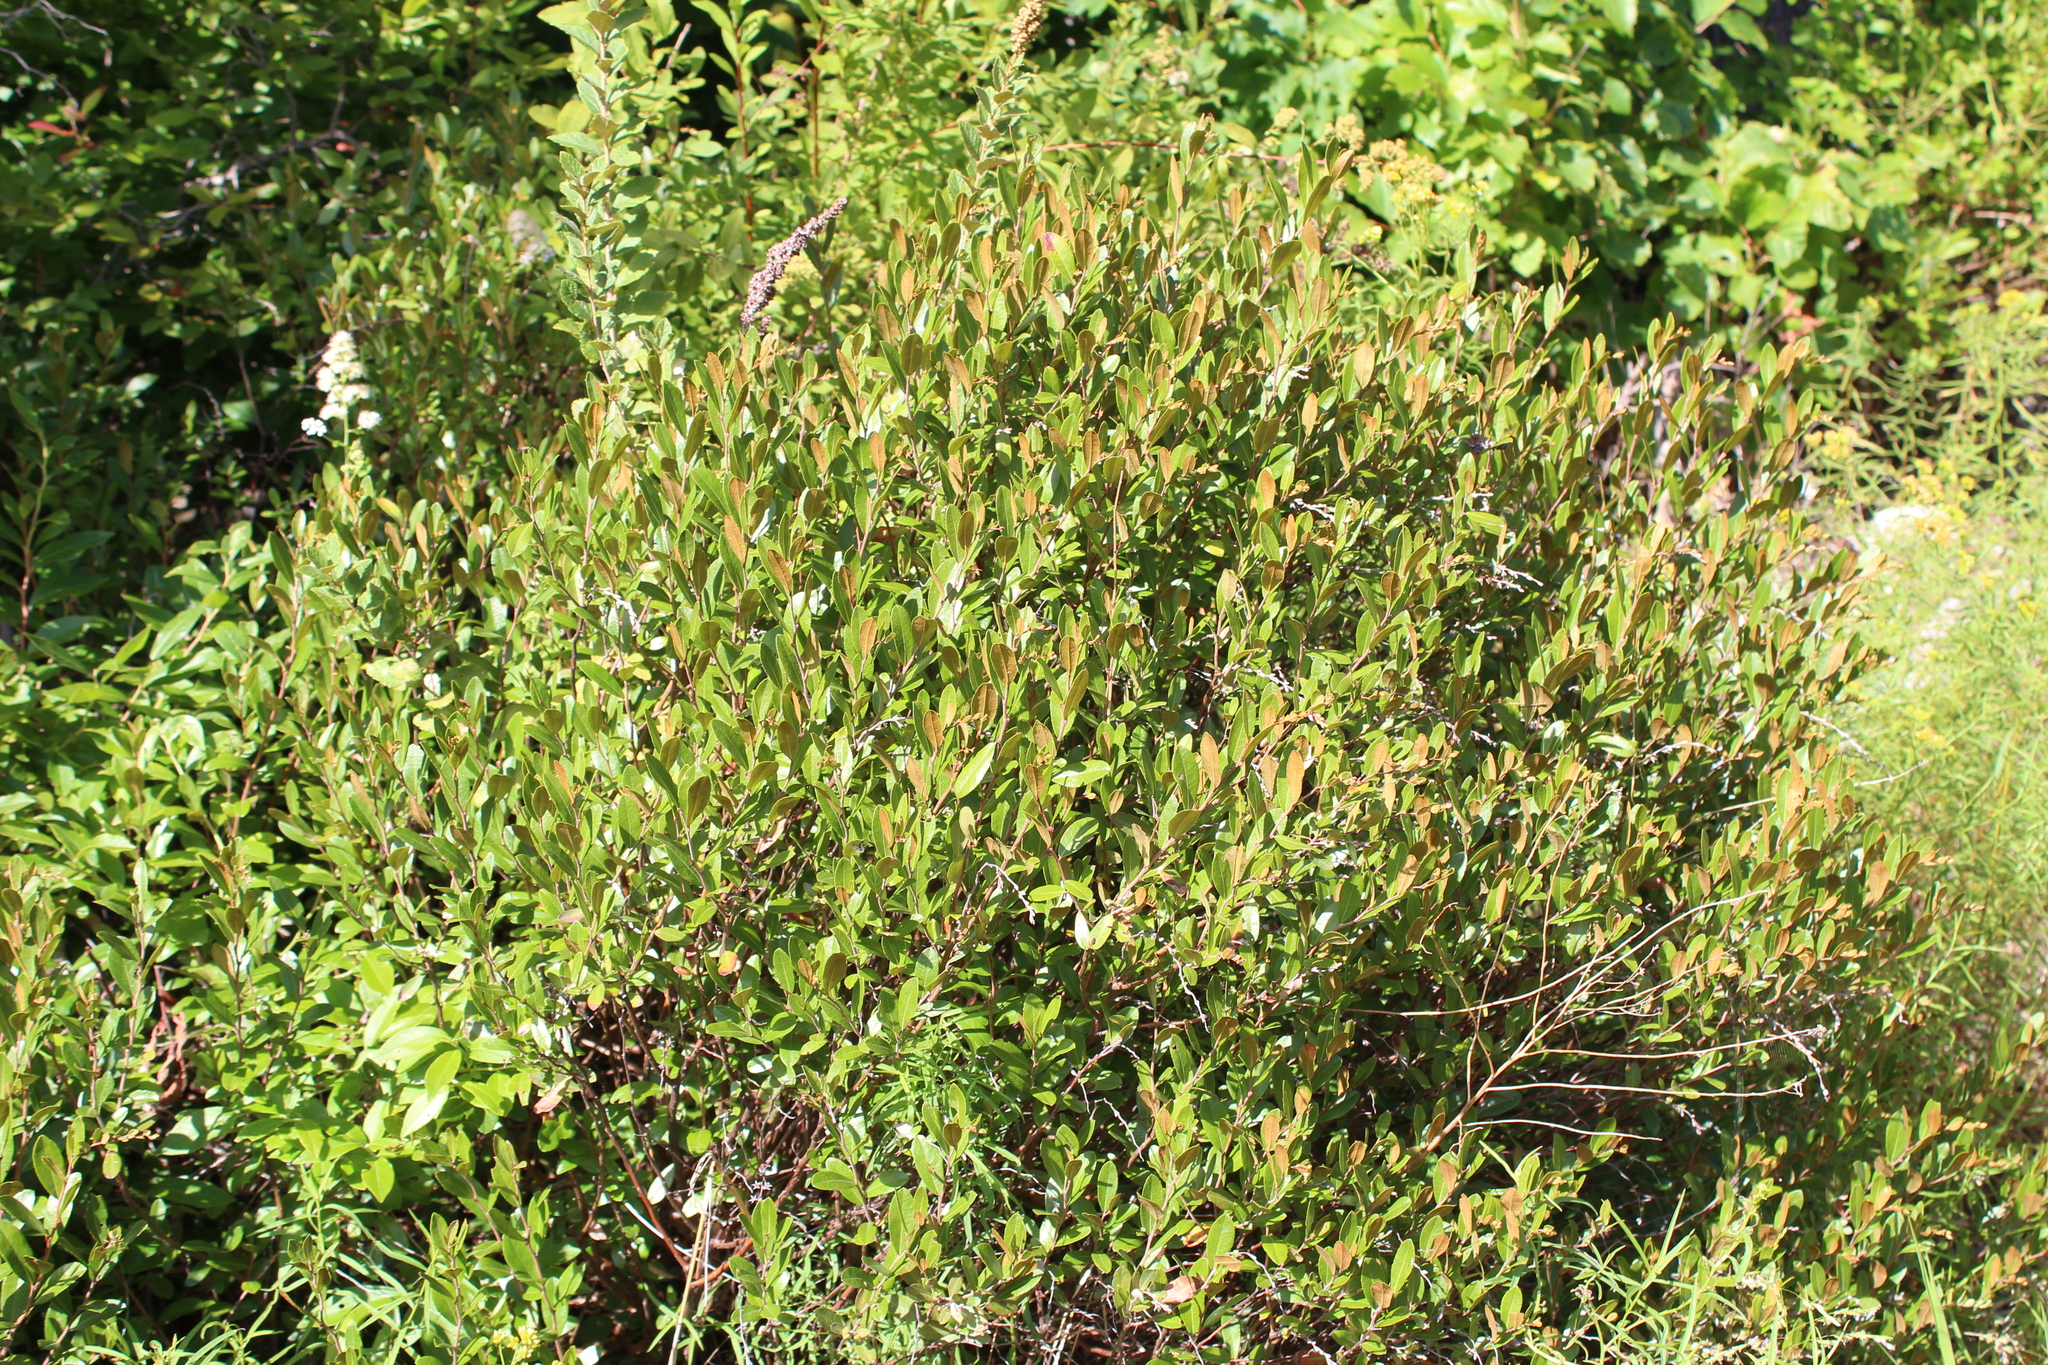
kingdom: Plantae
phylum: Tracheophyta
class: Magnoliopsida
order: Ericales
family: Ericaceae
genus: Chamaedaphne
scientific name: Chamaedaphne calyculata
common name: Leatherleaf
